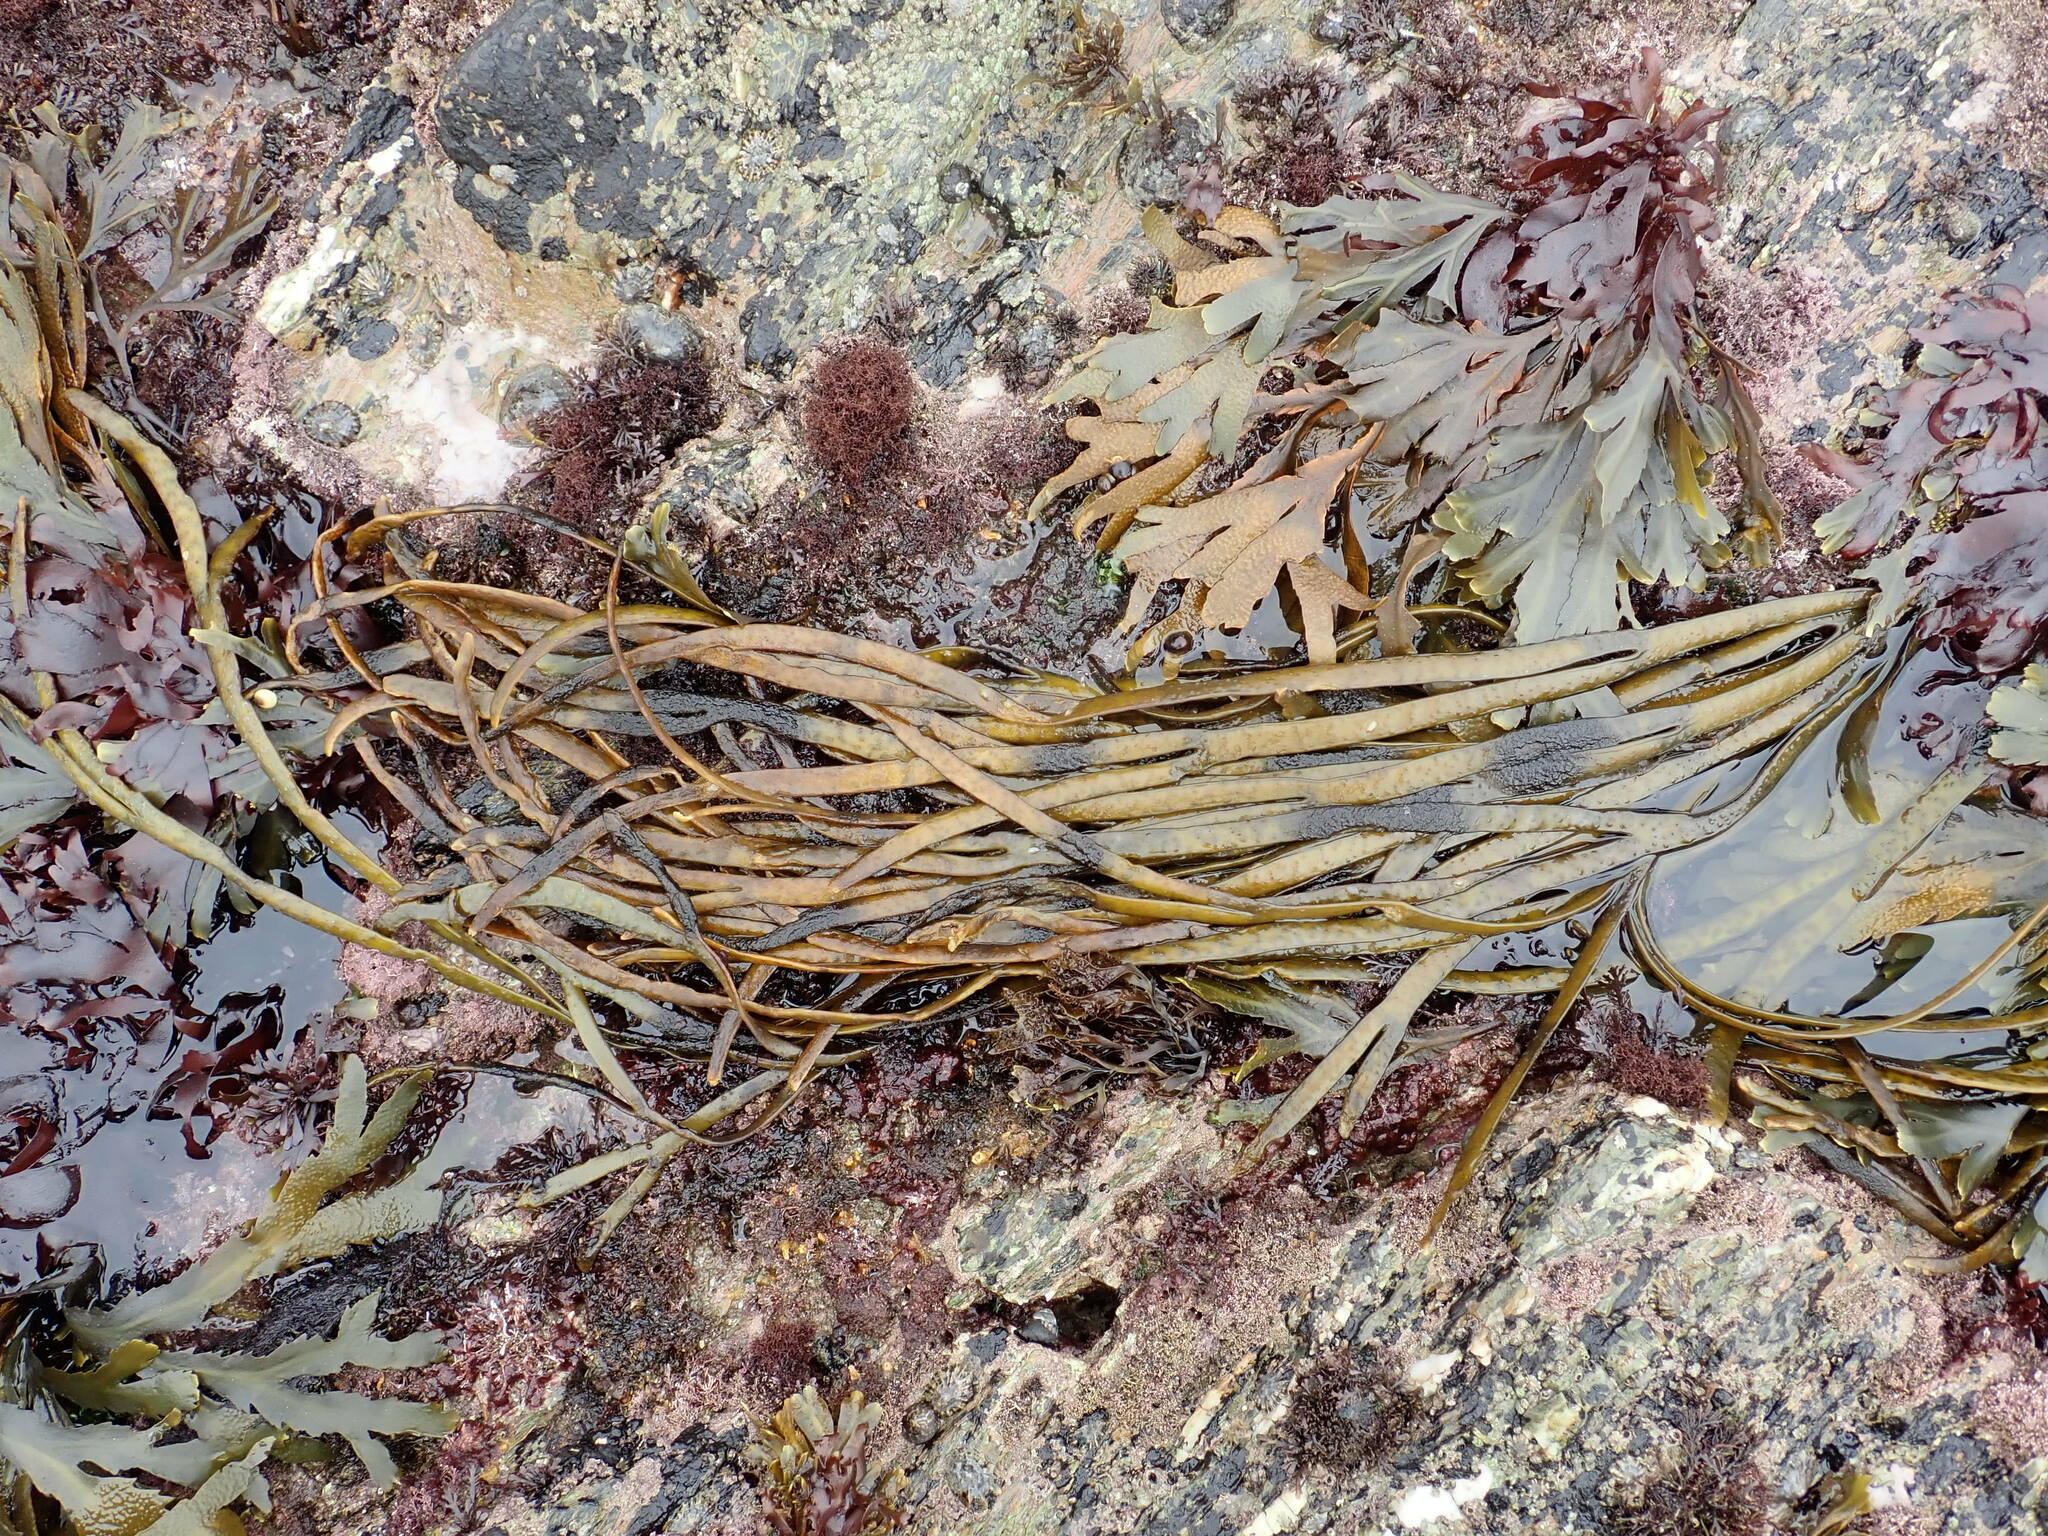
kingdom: Chromista
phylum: Ochrophyta
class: Phaeophyceae
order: Fucales
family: Himanthaliaceae
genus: Himanthalia
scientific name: Himanthalia elongata
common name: Sea-thong
